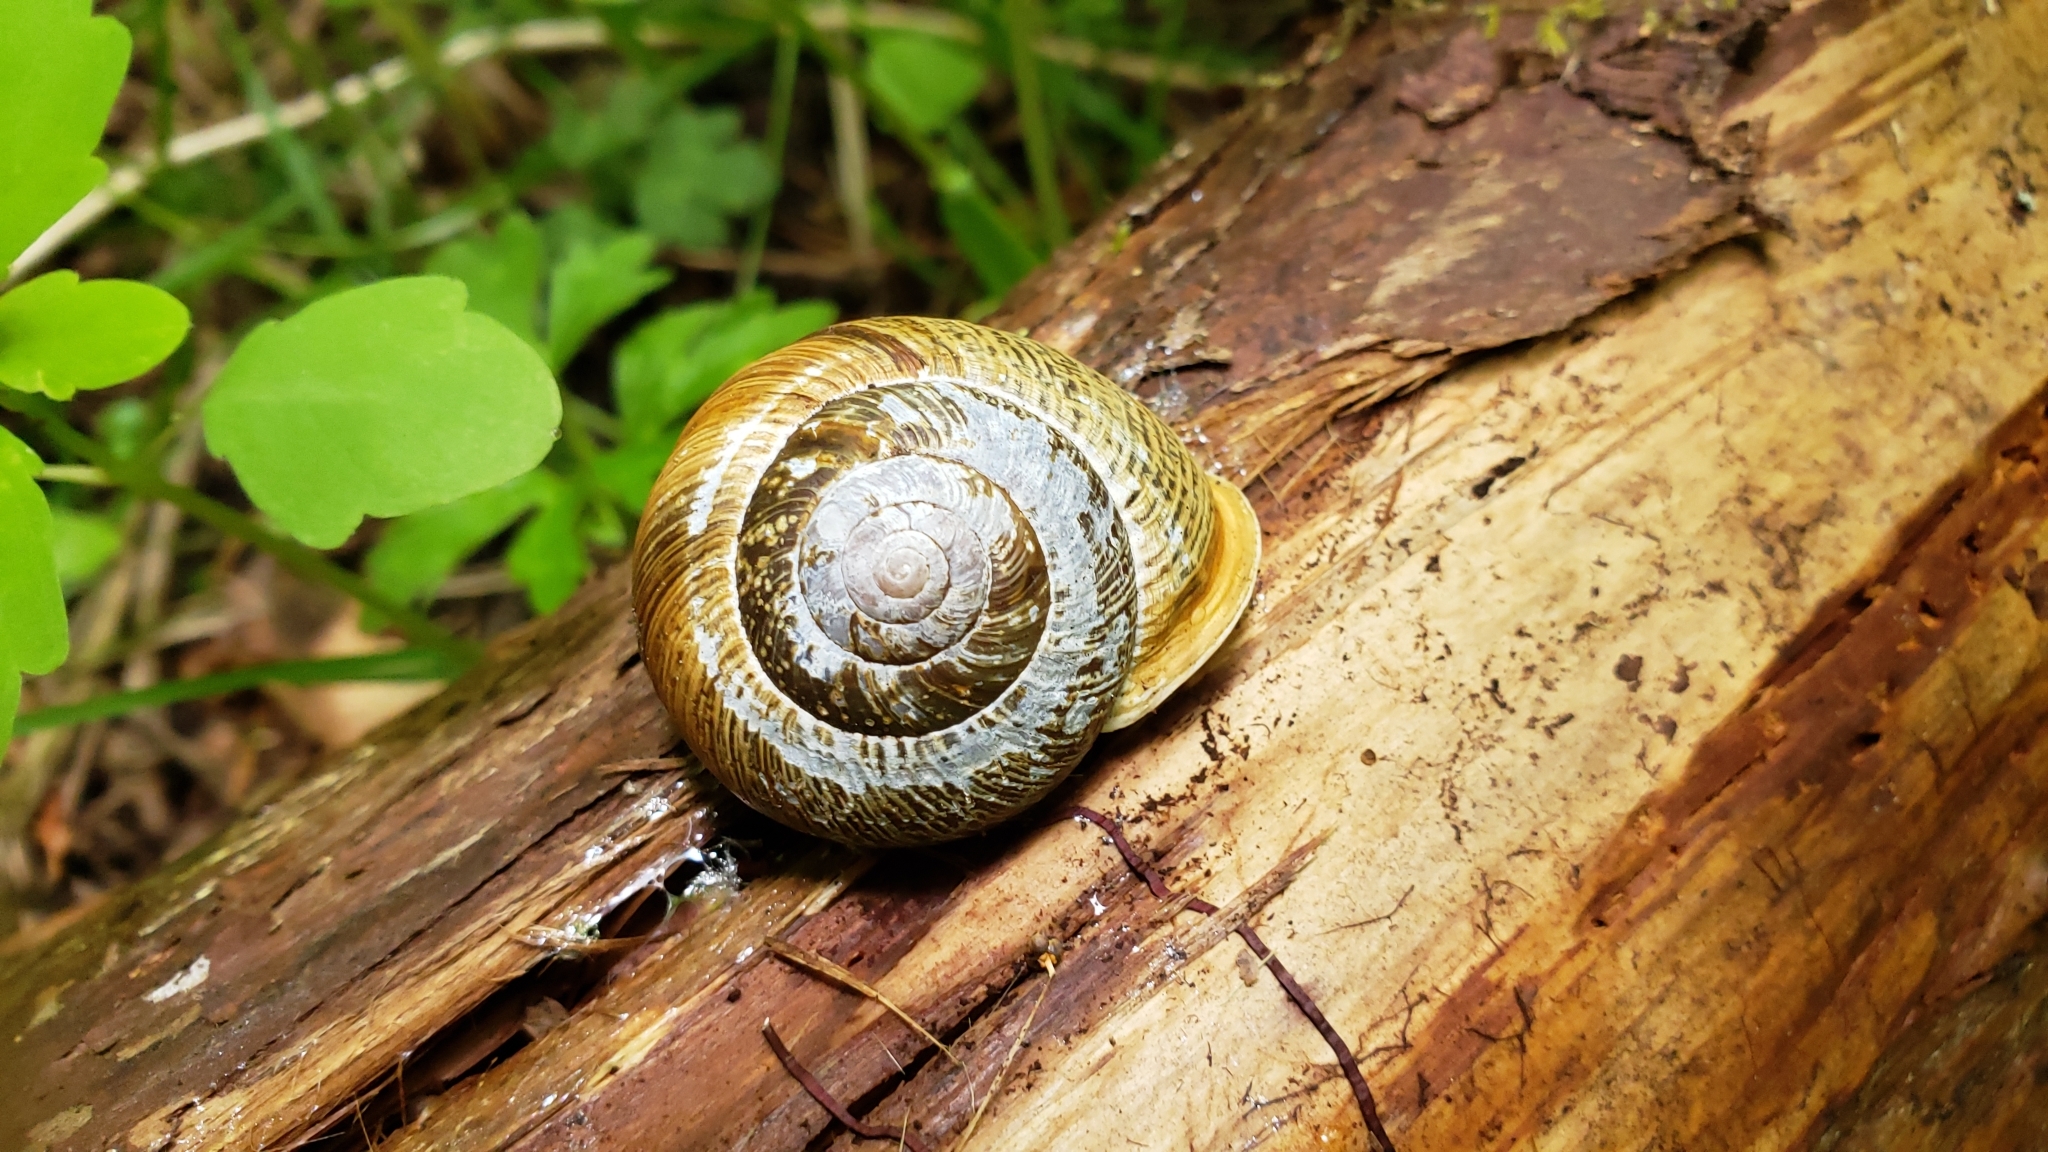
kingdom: Animalia
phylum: Mollusca
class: Gastropoda
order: Stylommatophora
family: Polygyridae
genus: Allogona
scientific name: Allogona townsendiana
